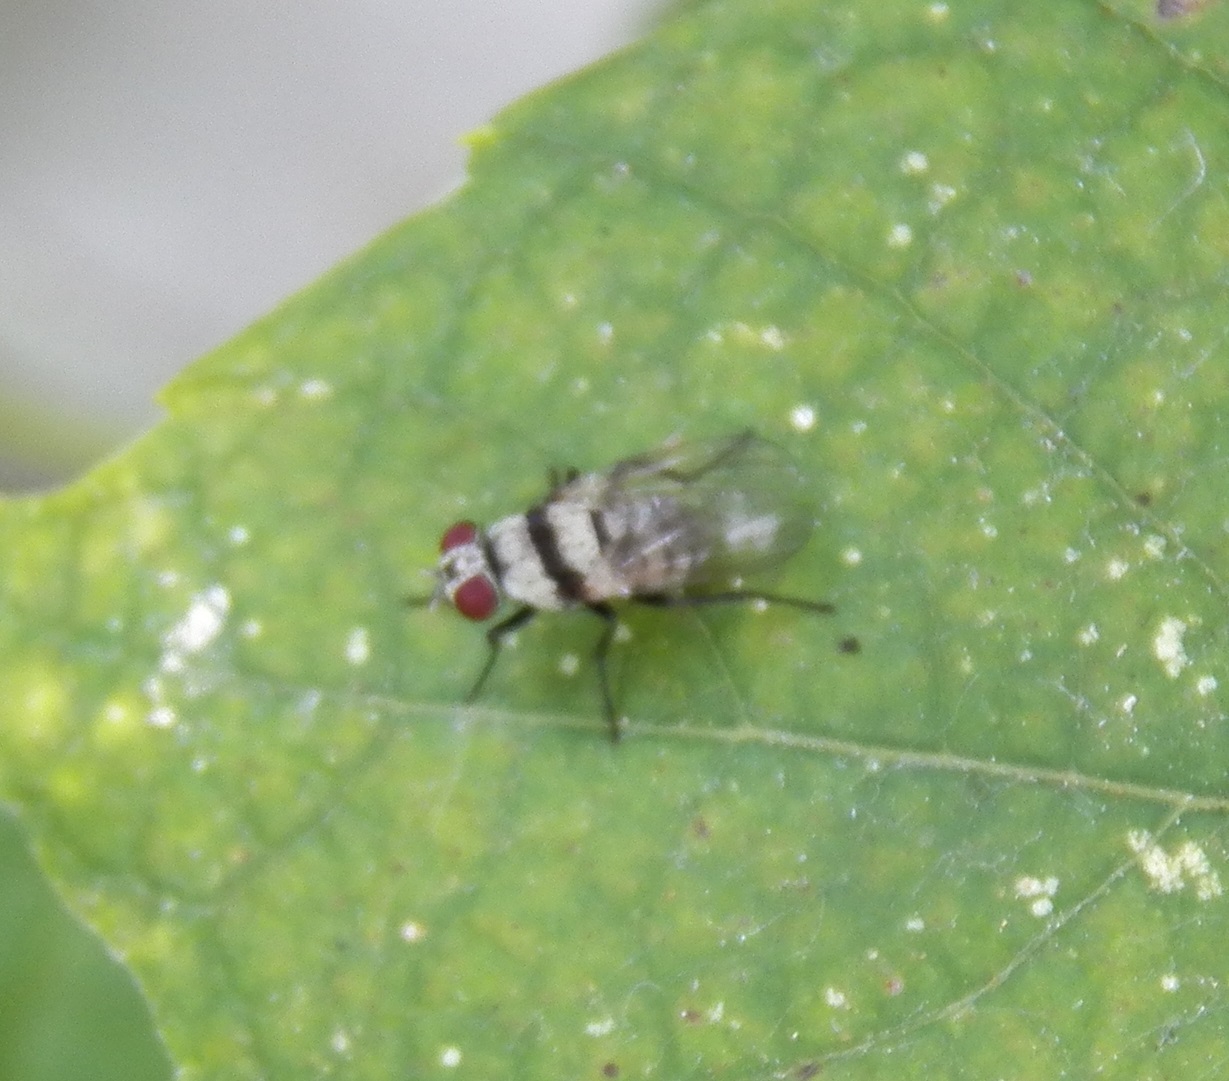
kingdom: Animalia
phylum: Arthropoda
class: Insecta
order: Diptera
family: Anthomyiidae
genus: Anthomyia
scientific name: Anthomyia illocata
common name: Fly
